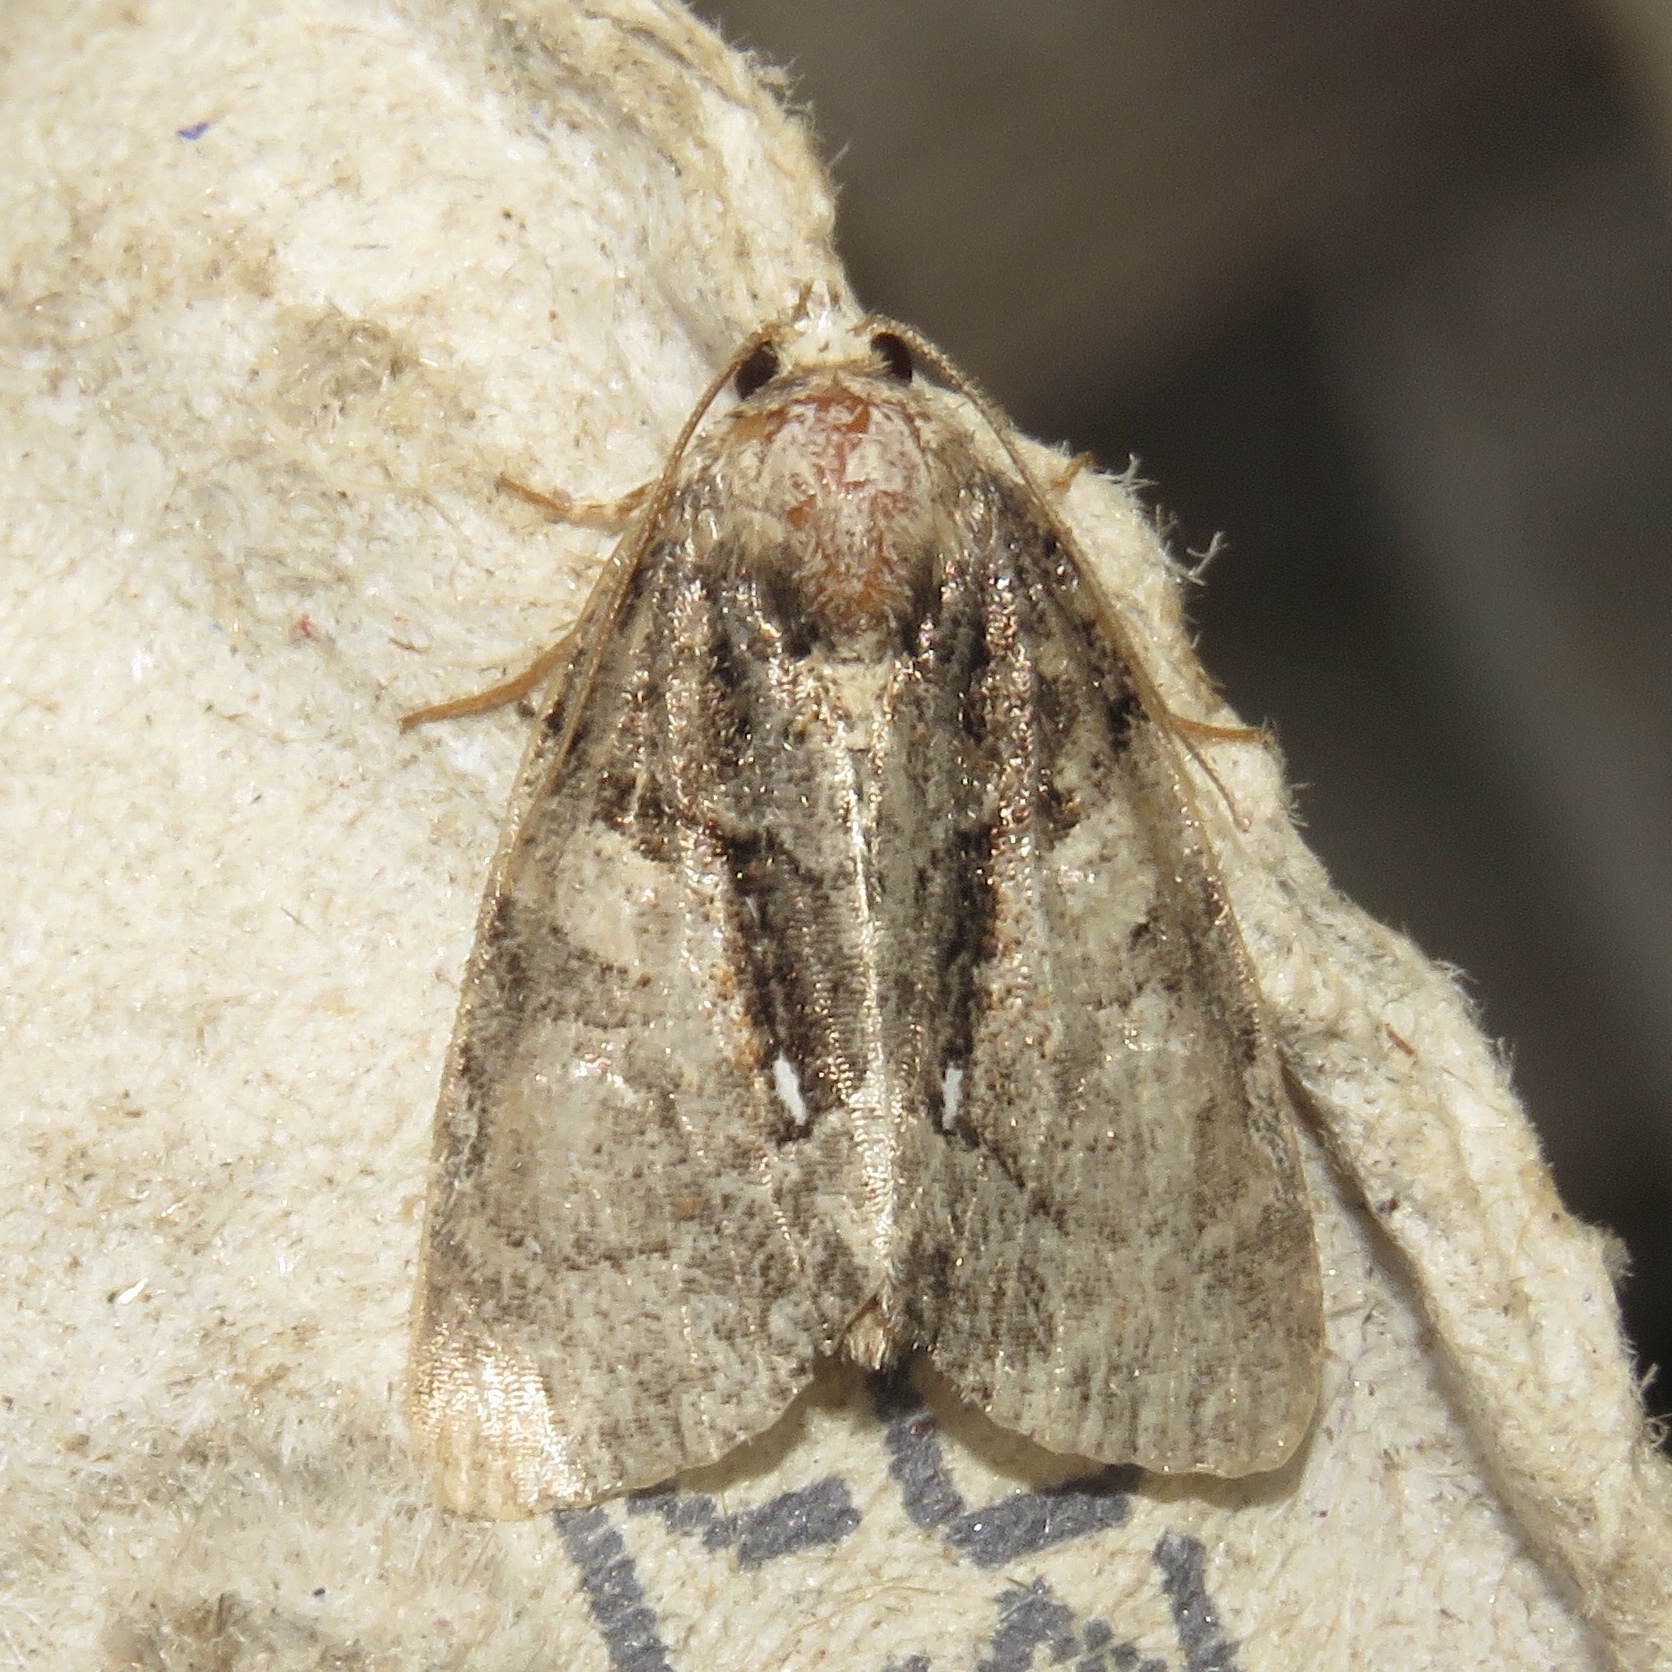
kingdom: Animalia
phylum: Arthropoda
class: Insecta
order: Lepidoptera
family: Noctuidae
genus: Chytonix
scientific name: Chytonix palliatricula
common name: Cloaked marvel
